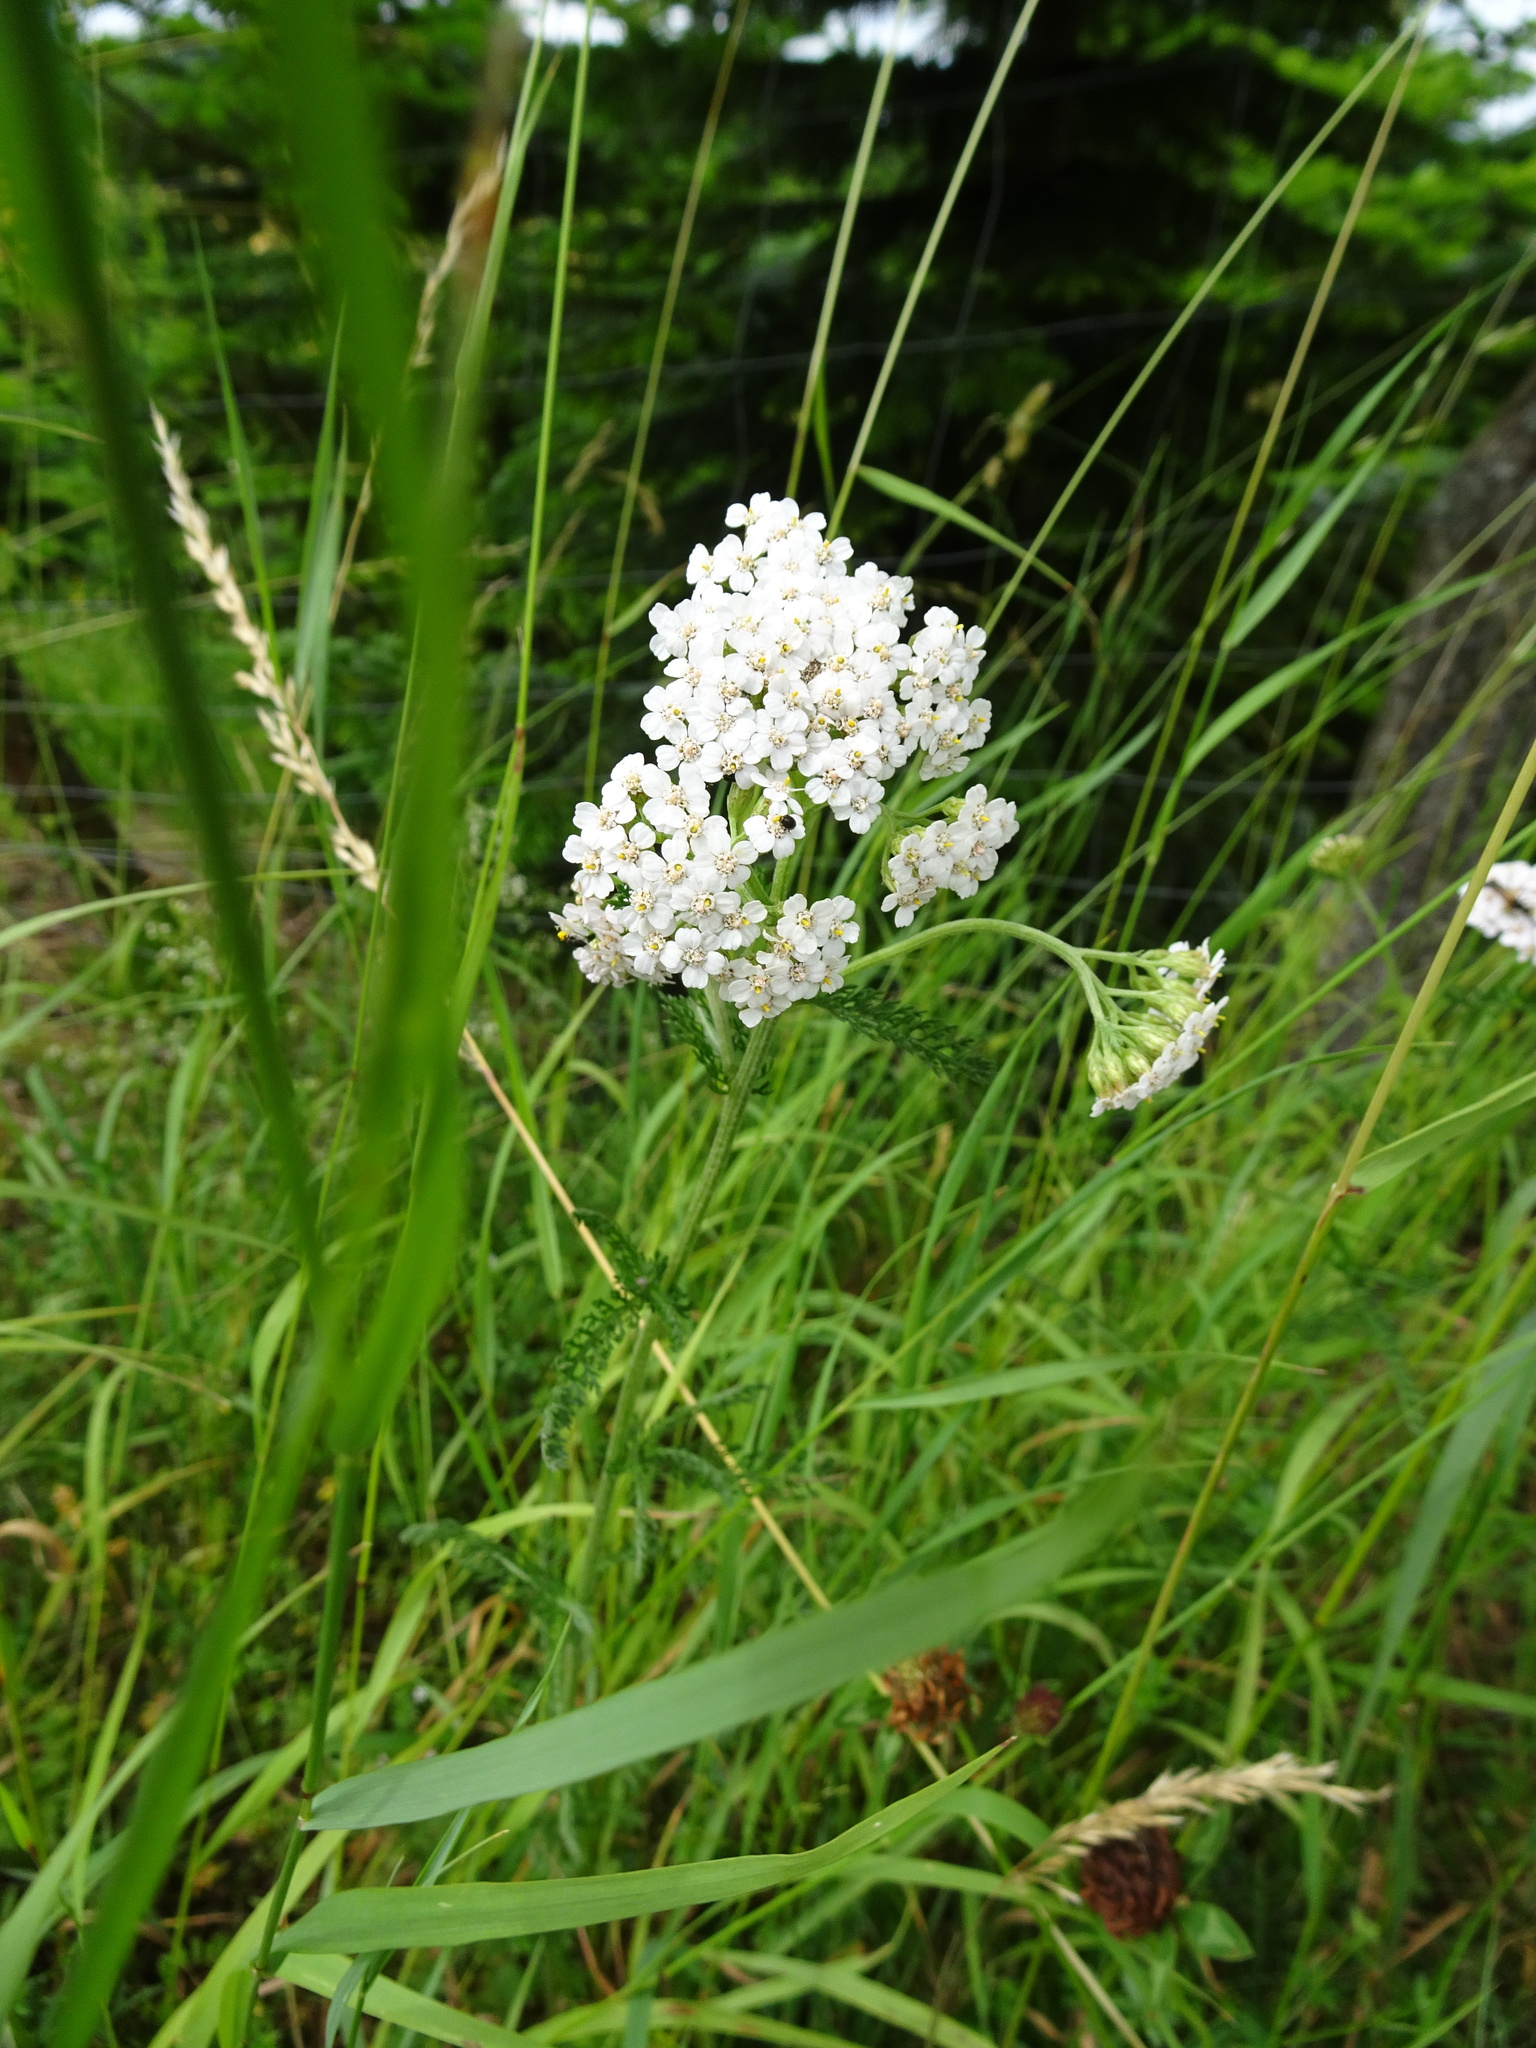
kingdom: Plantae
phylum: Tracheophyta
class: Magnoliopsida
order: Asterales
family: Asteraceae
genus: Achillea
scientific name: Achillea millefolium
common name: Yarrow
